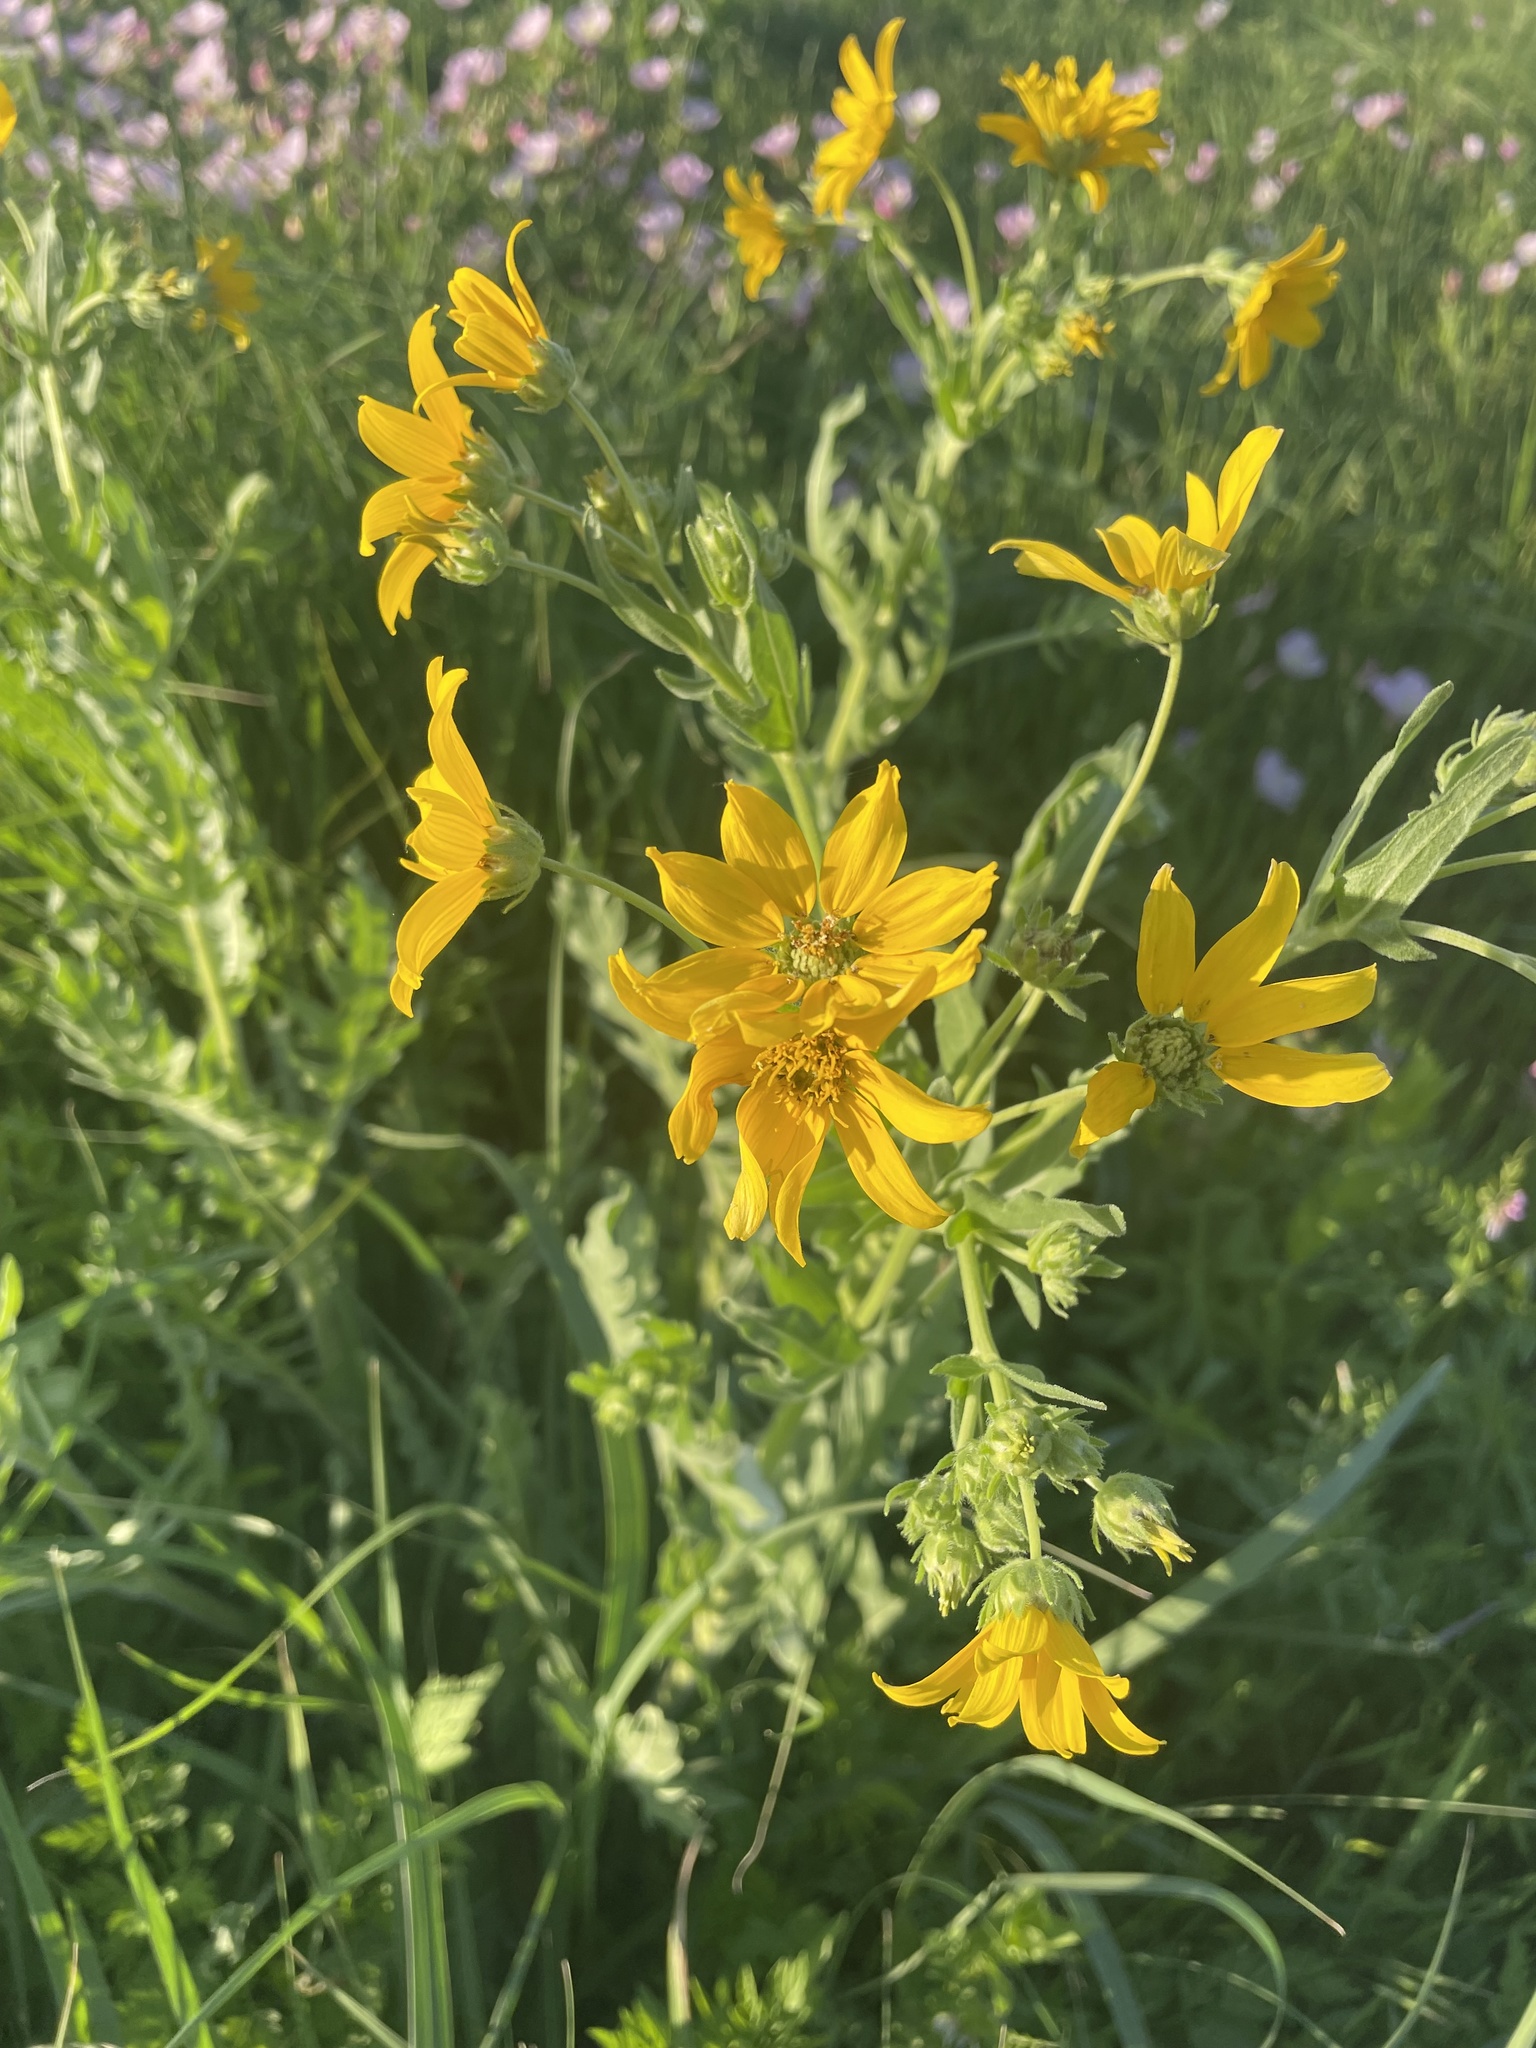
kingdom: Plantae
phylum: Tracheophyta
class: Magnoliopsida
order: Asterales
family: Asteraceae
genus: Engelmannia
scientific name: Engelmannia peristenia
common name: Engelmann's daisy
